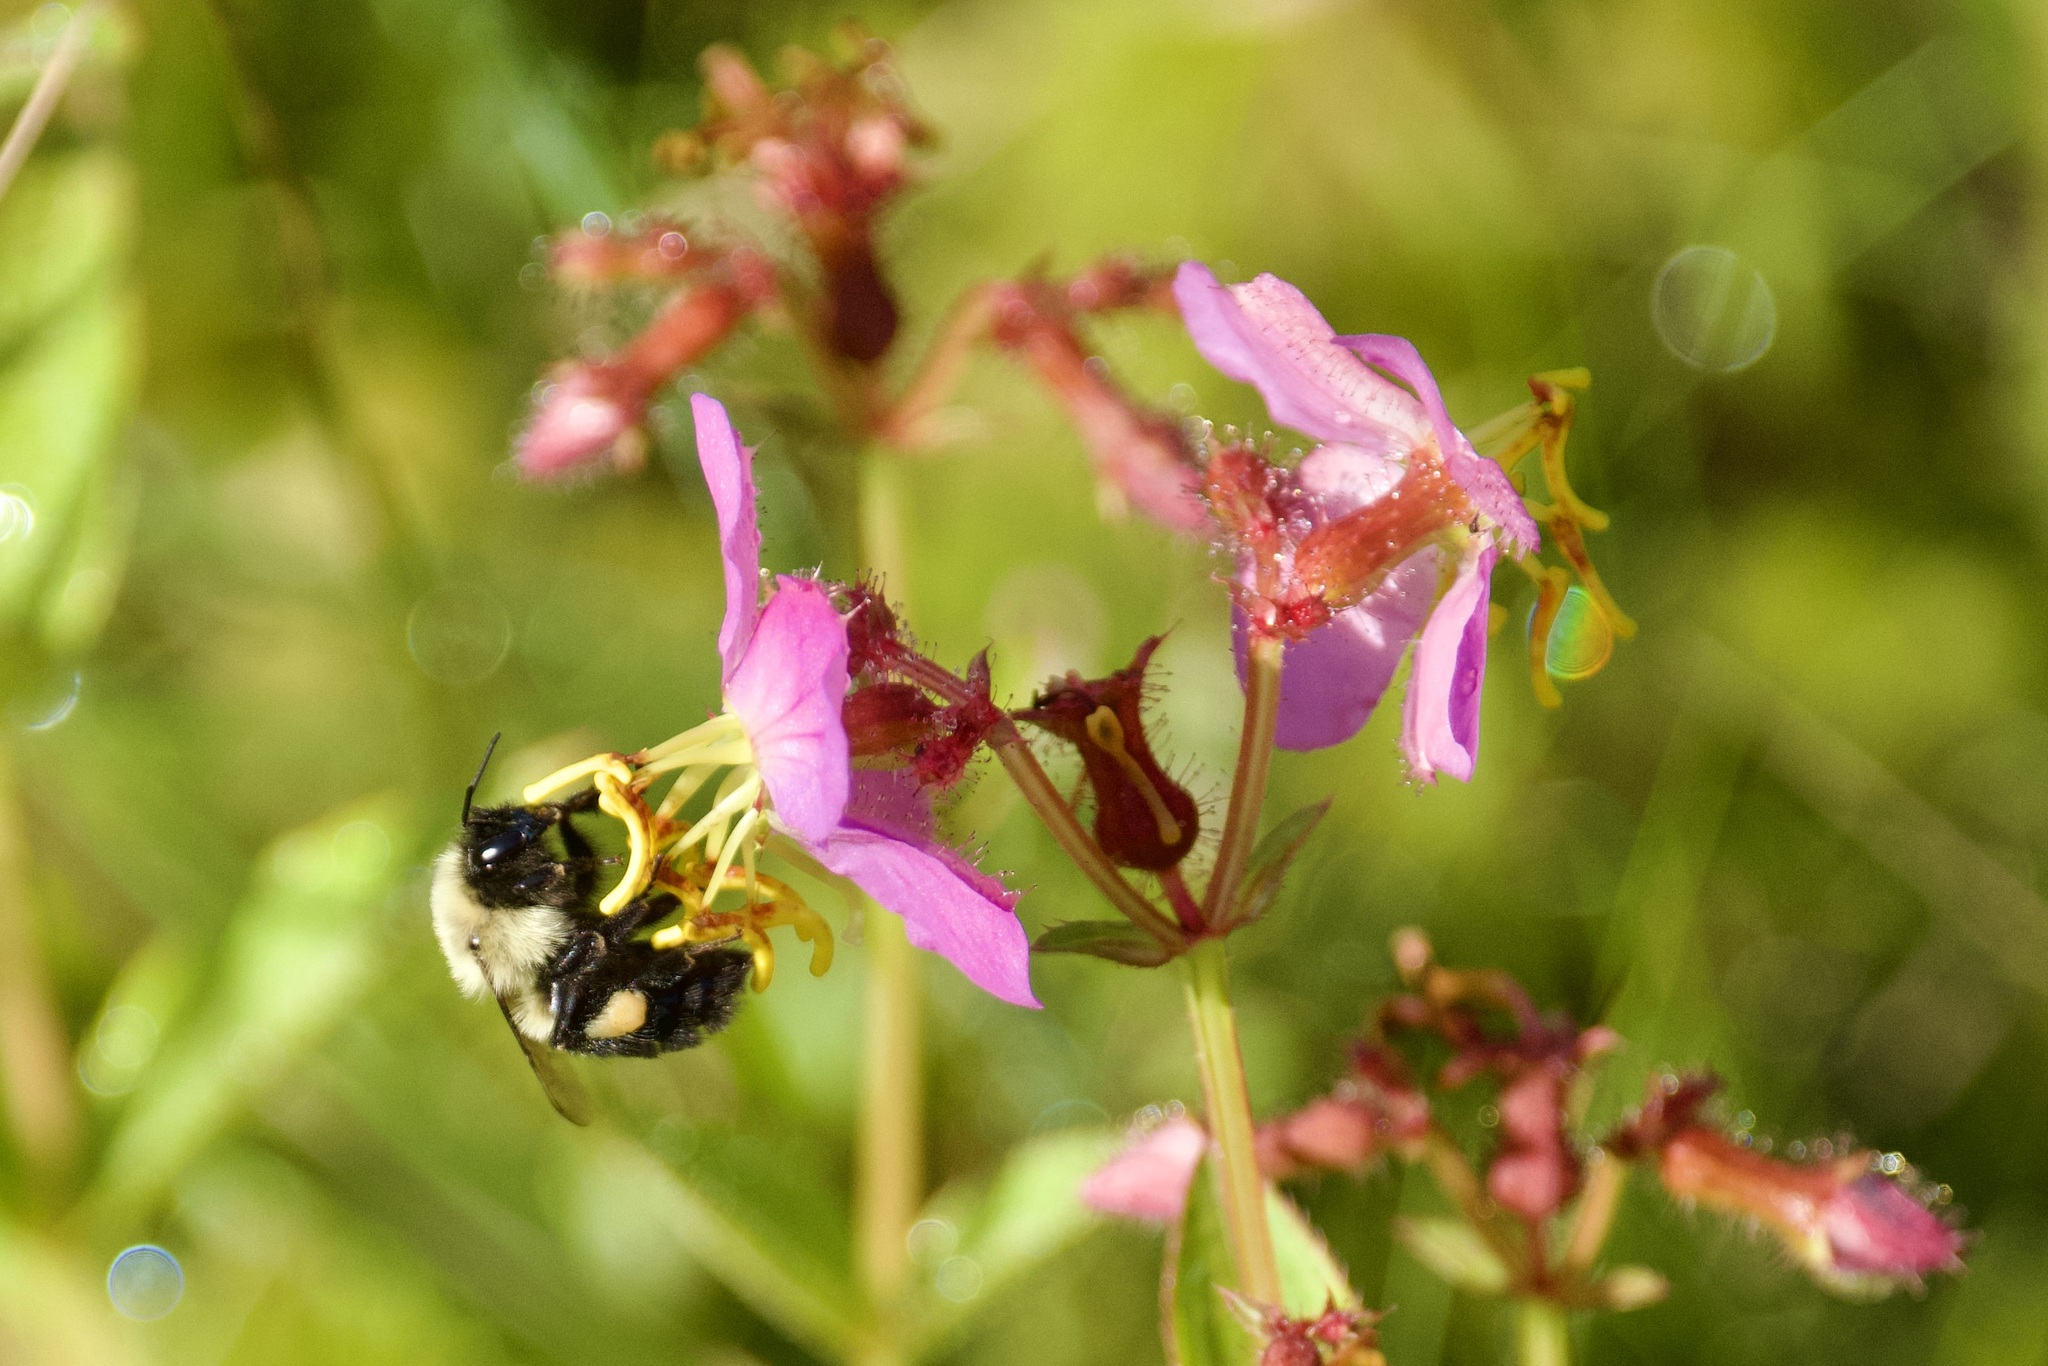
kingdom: Animalia
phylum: Arthropoda
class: Insecta
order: Hymenoptera
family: Apidae
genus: Bombus
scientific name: Bombus impatiens
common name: Common eastern bumble bee
